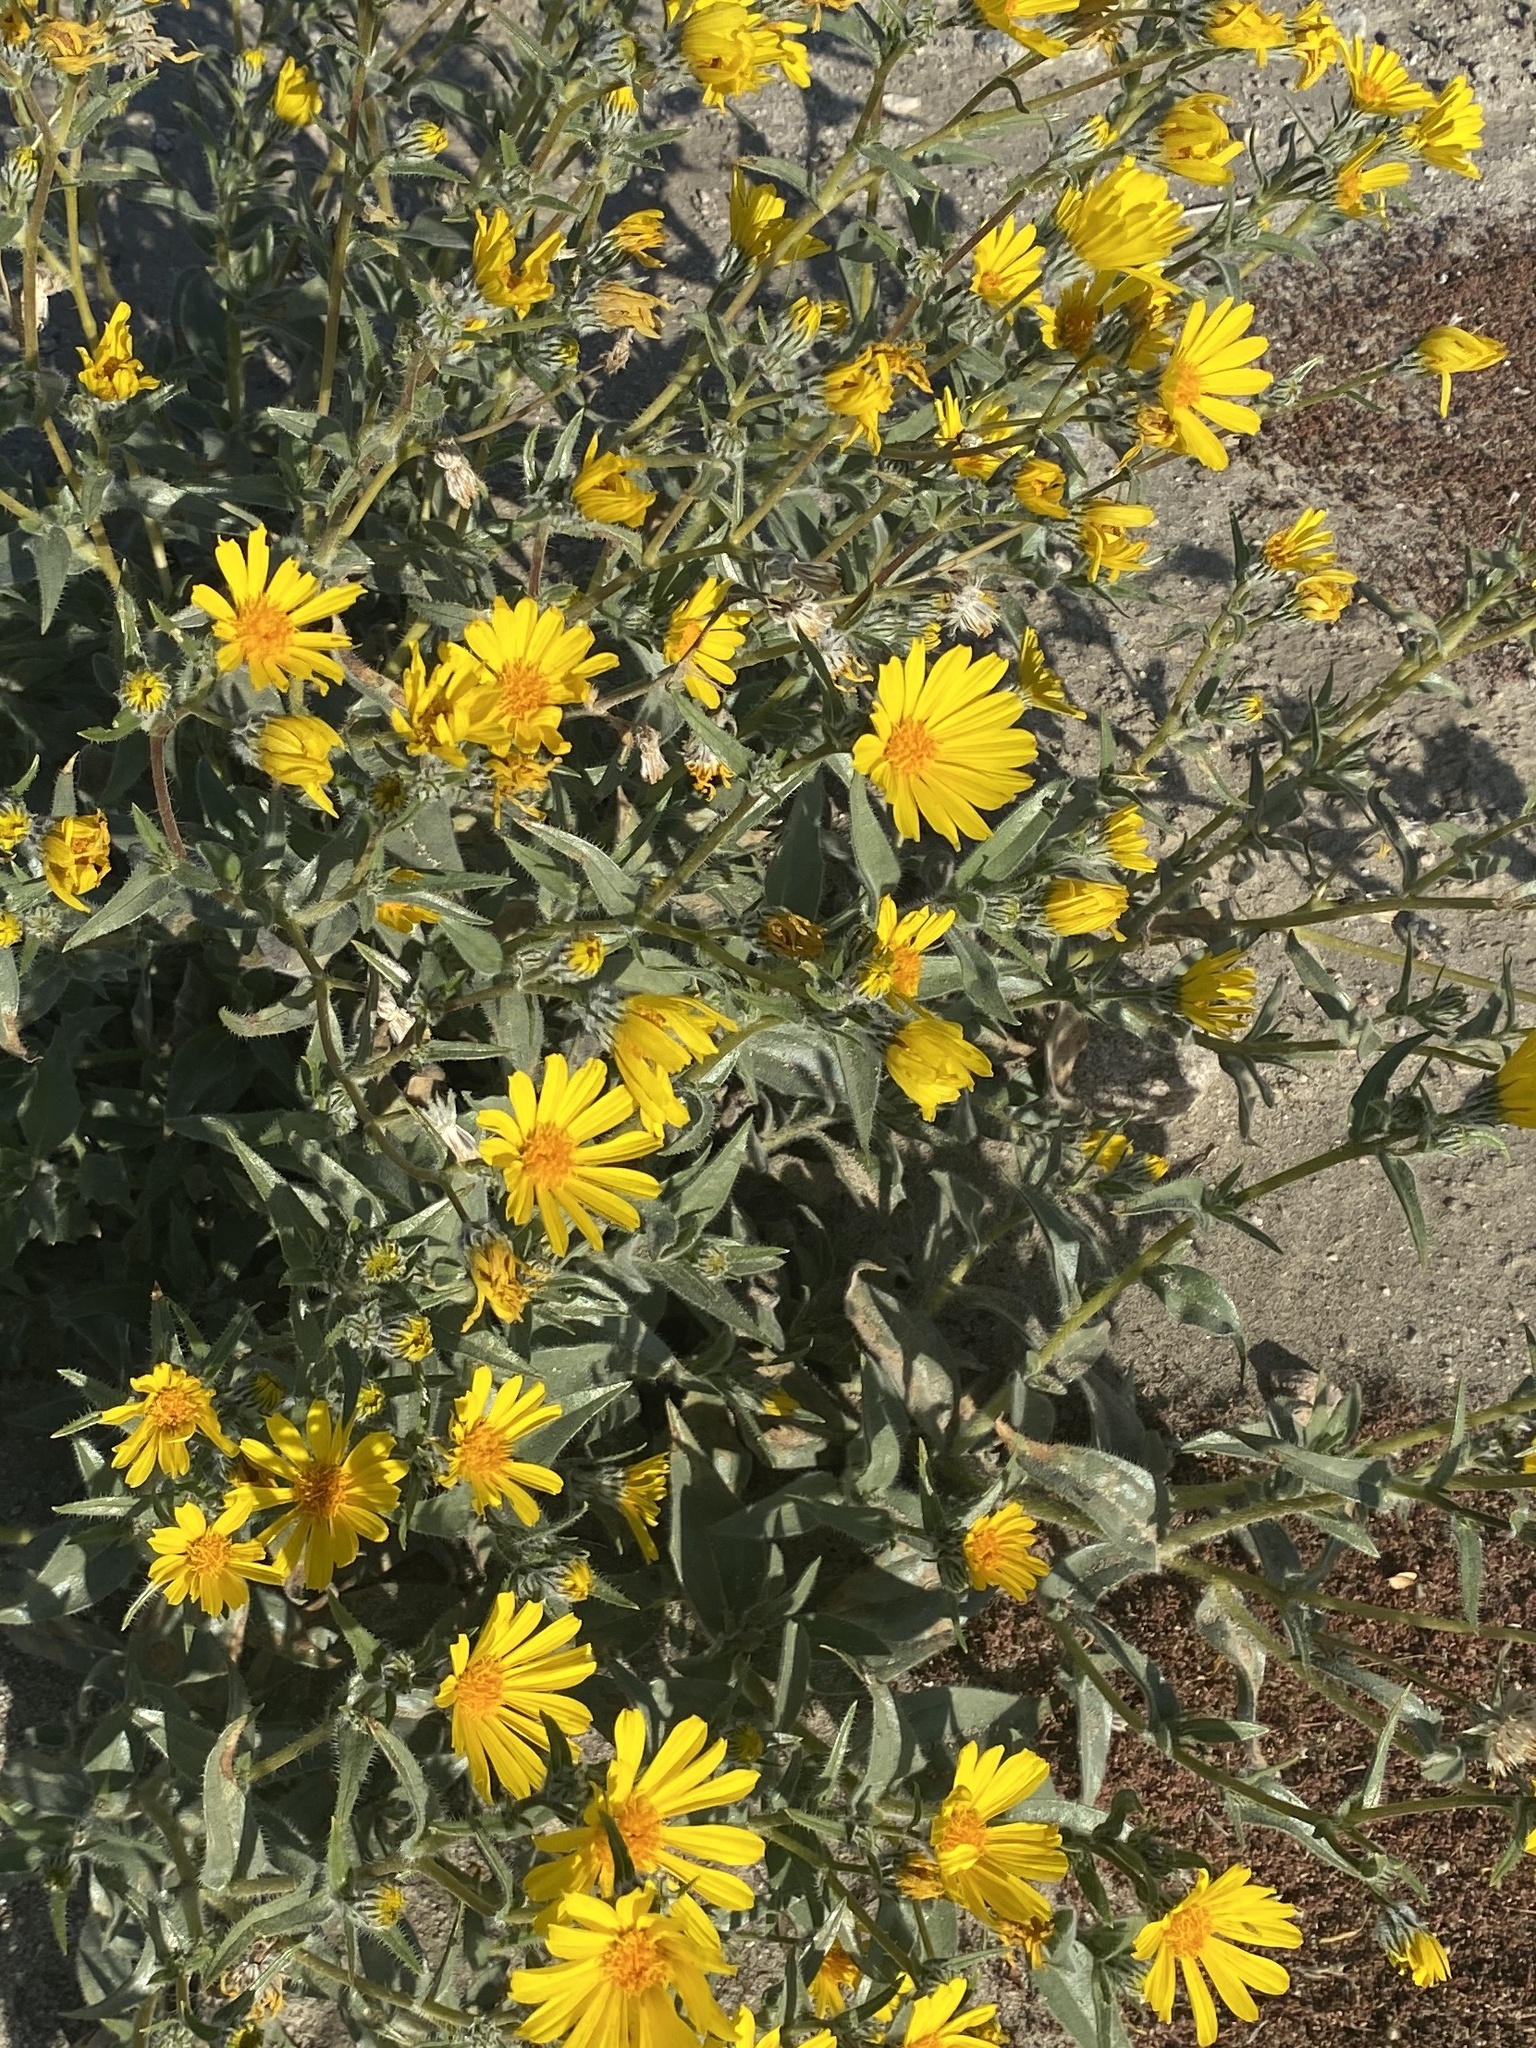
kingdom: Plantae
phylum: Tracheophyta
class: Magnoliopsida
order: Asterales
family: Asteraceae
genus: Geraea
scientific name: Geraea canescens
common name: Desert-gold
